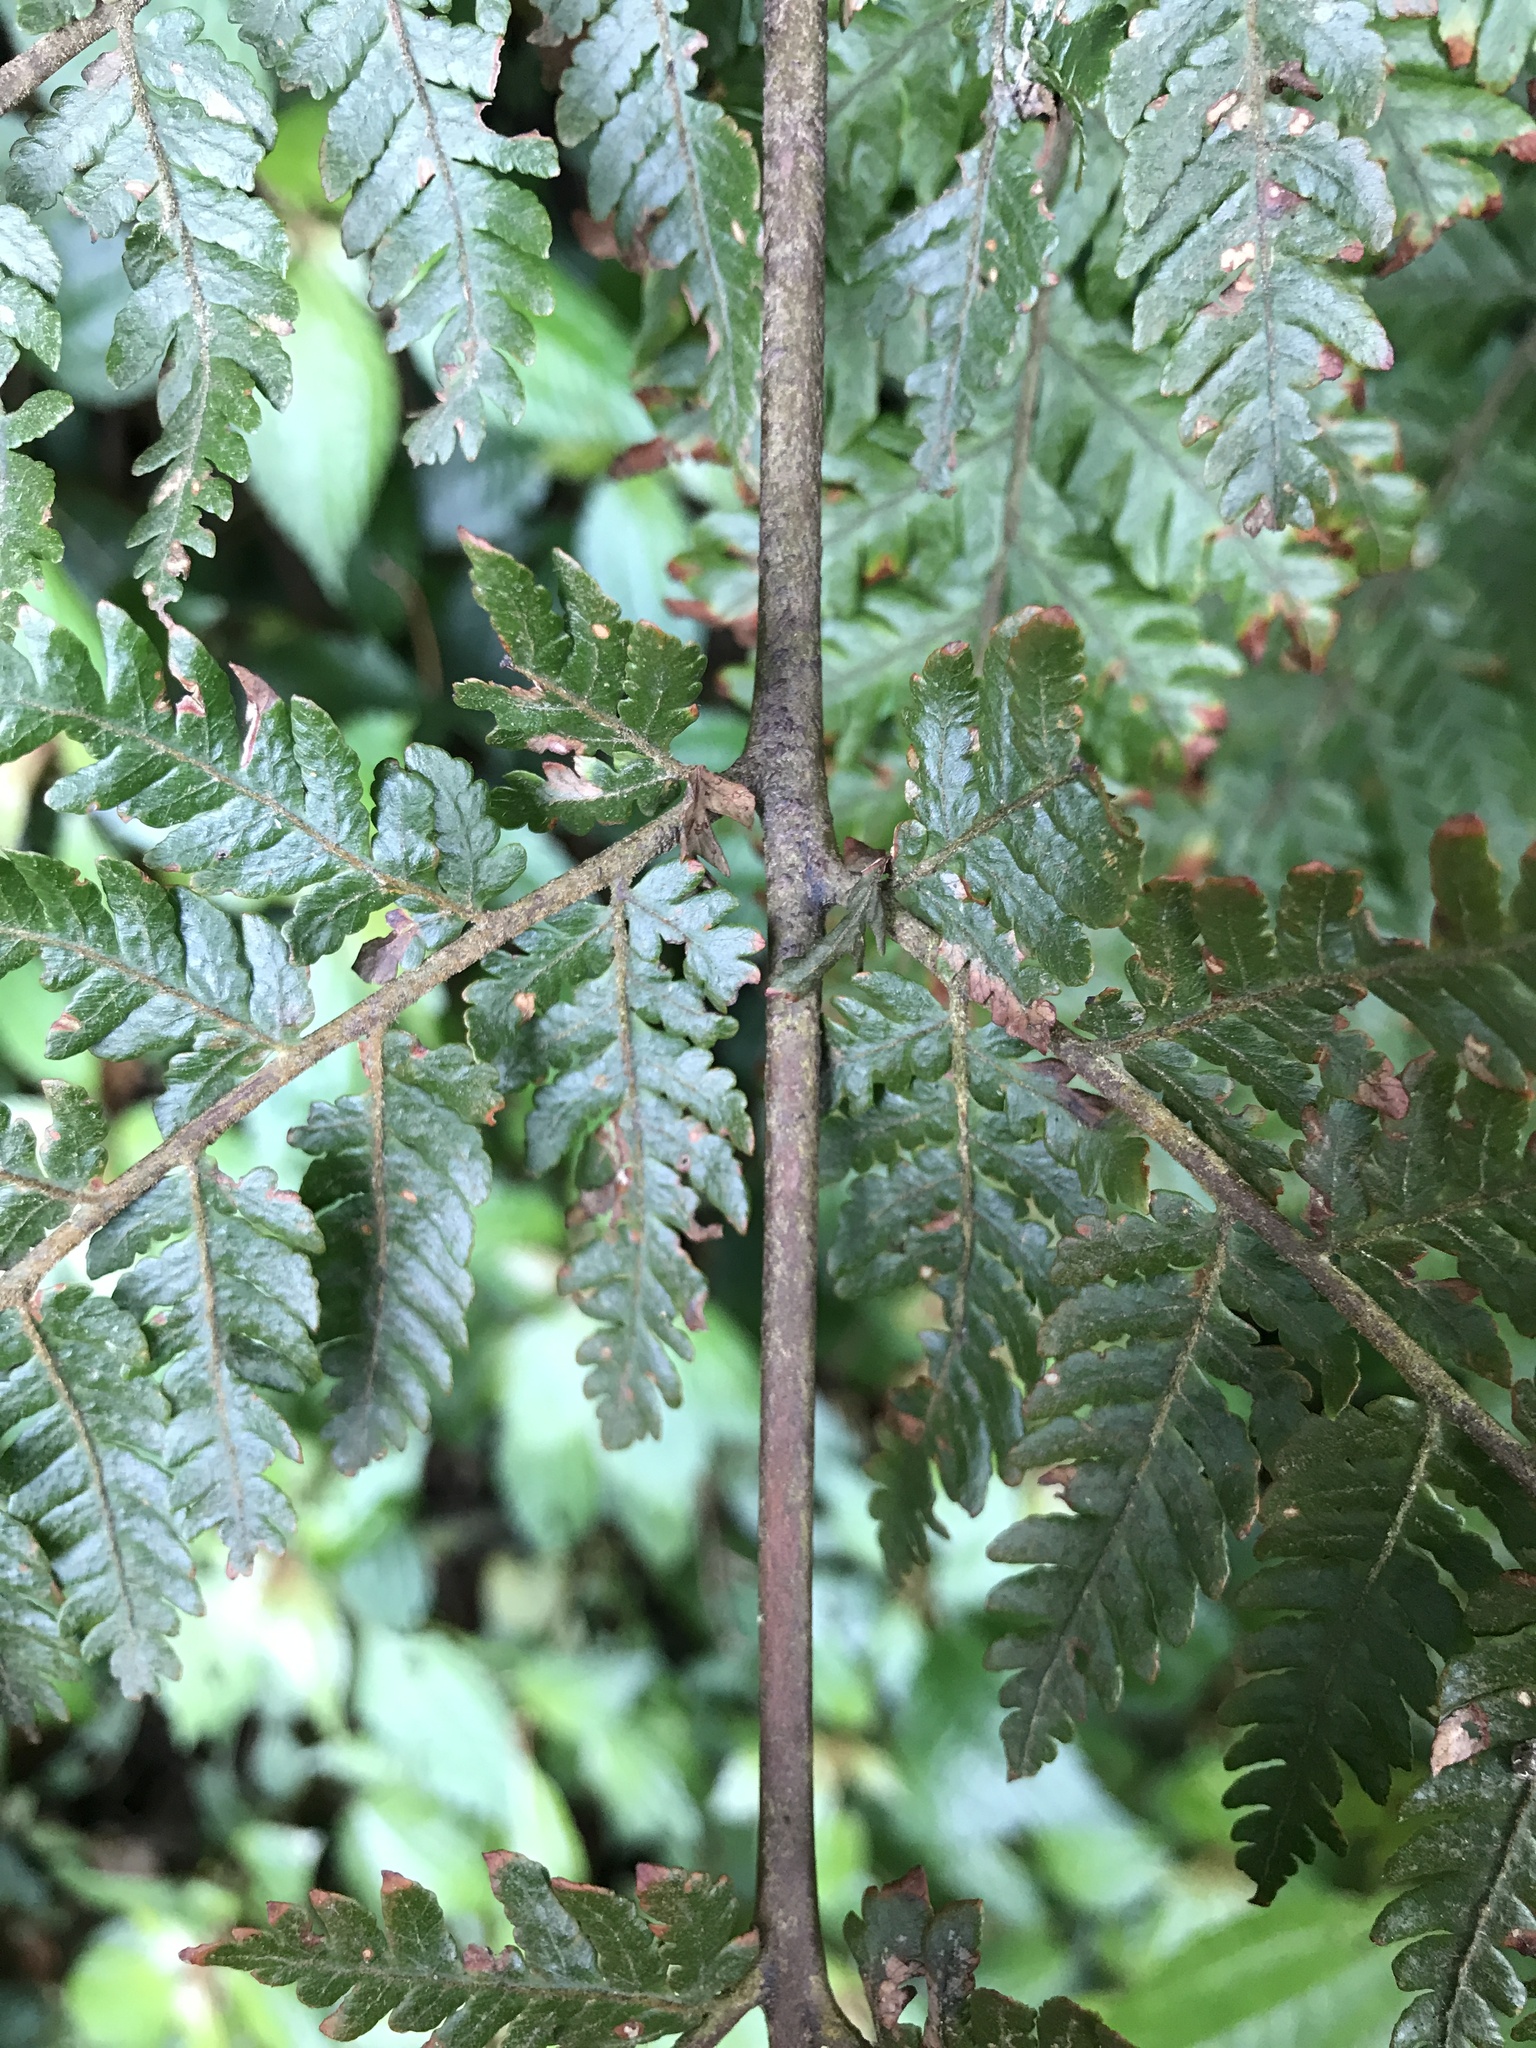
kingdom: Plantae
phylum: Tracheophyta
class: Polypodiopsida
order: Polypodiales
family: Dryopteridaceae
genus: Ctenitis
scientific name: Ctenitis subglandulosa
